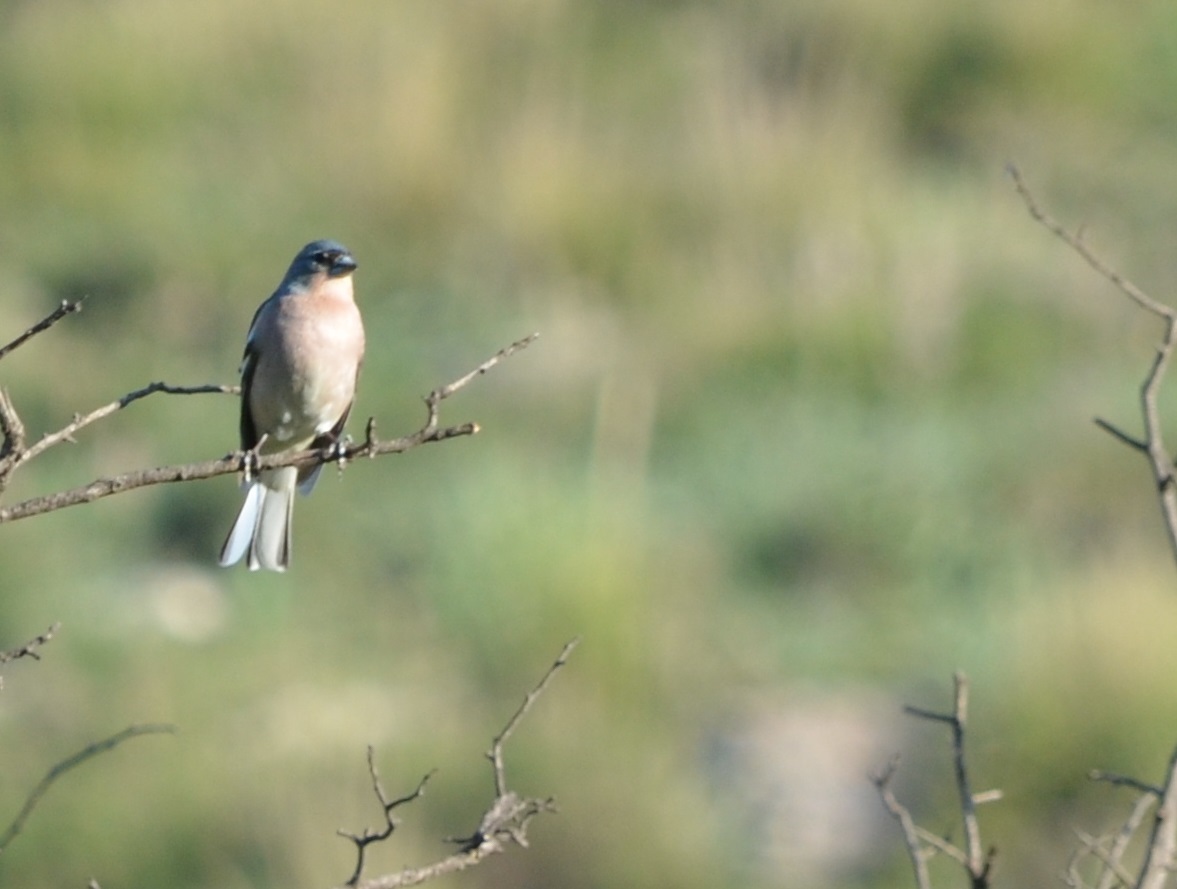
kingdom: Animalia
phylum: Chordata
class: Aves
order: Passeriformes
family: Fringillidae
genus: Fringilla
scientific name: Fringilla spodiogenys
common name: African chaffinch
